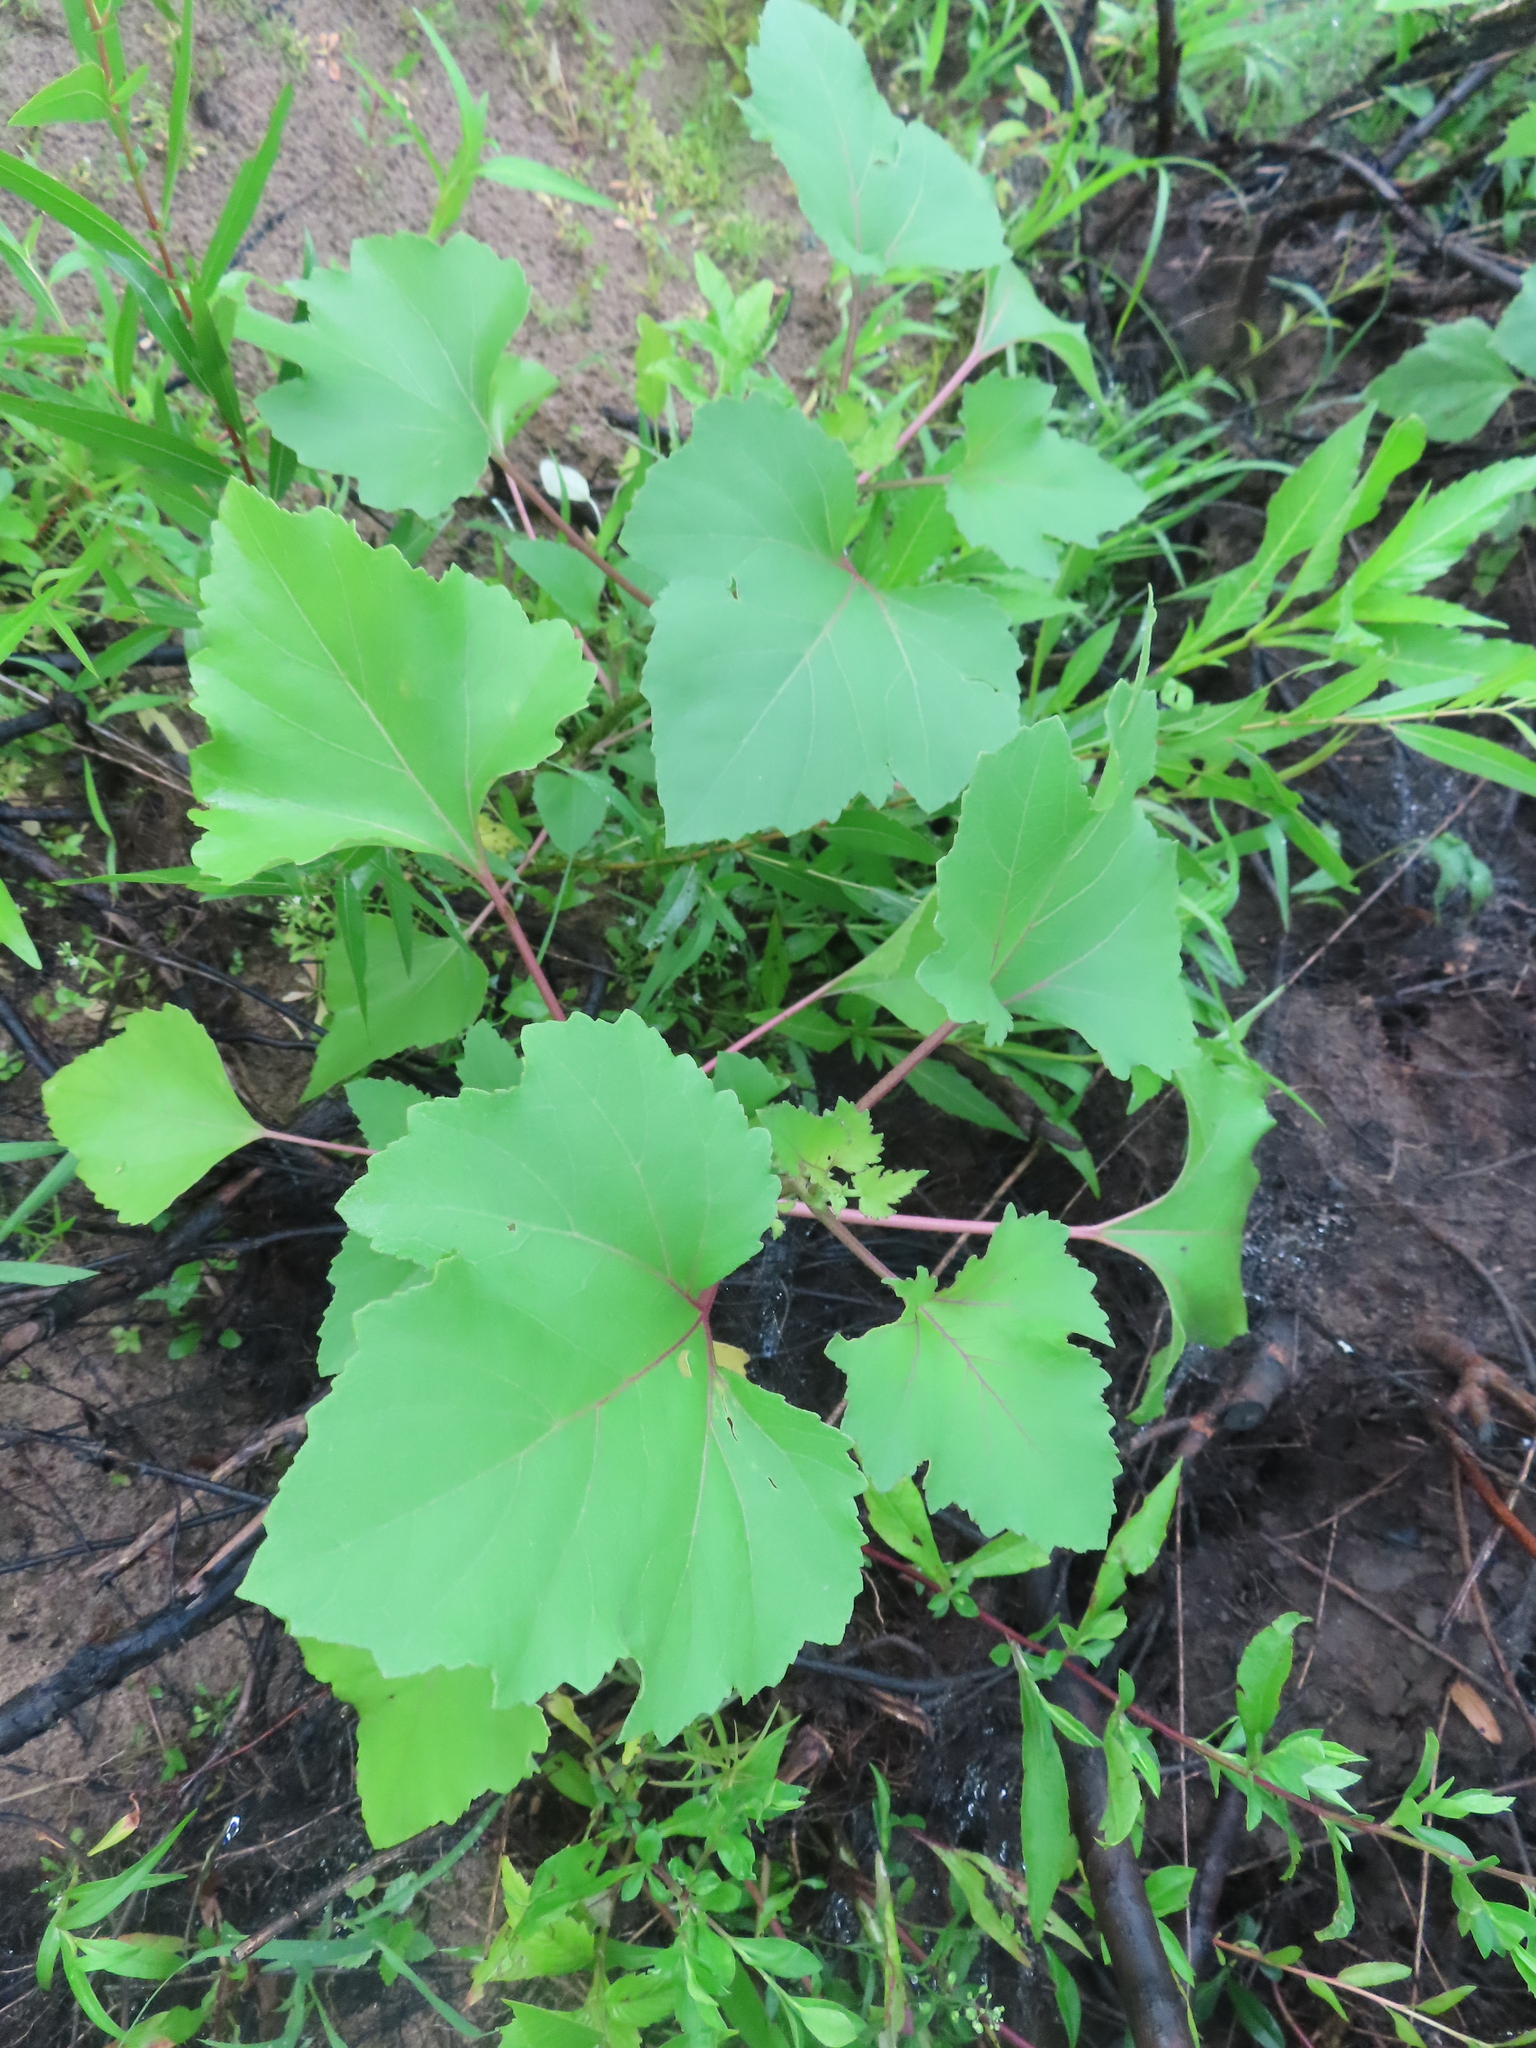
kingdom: Plantae
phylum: Tracheophyta
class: Magnoliopsida
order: Asterales
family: Asteraceae
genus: Xanthium
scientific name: Xanthium strumarium
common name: Rough cocklebur
